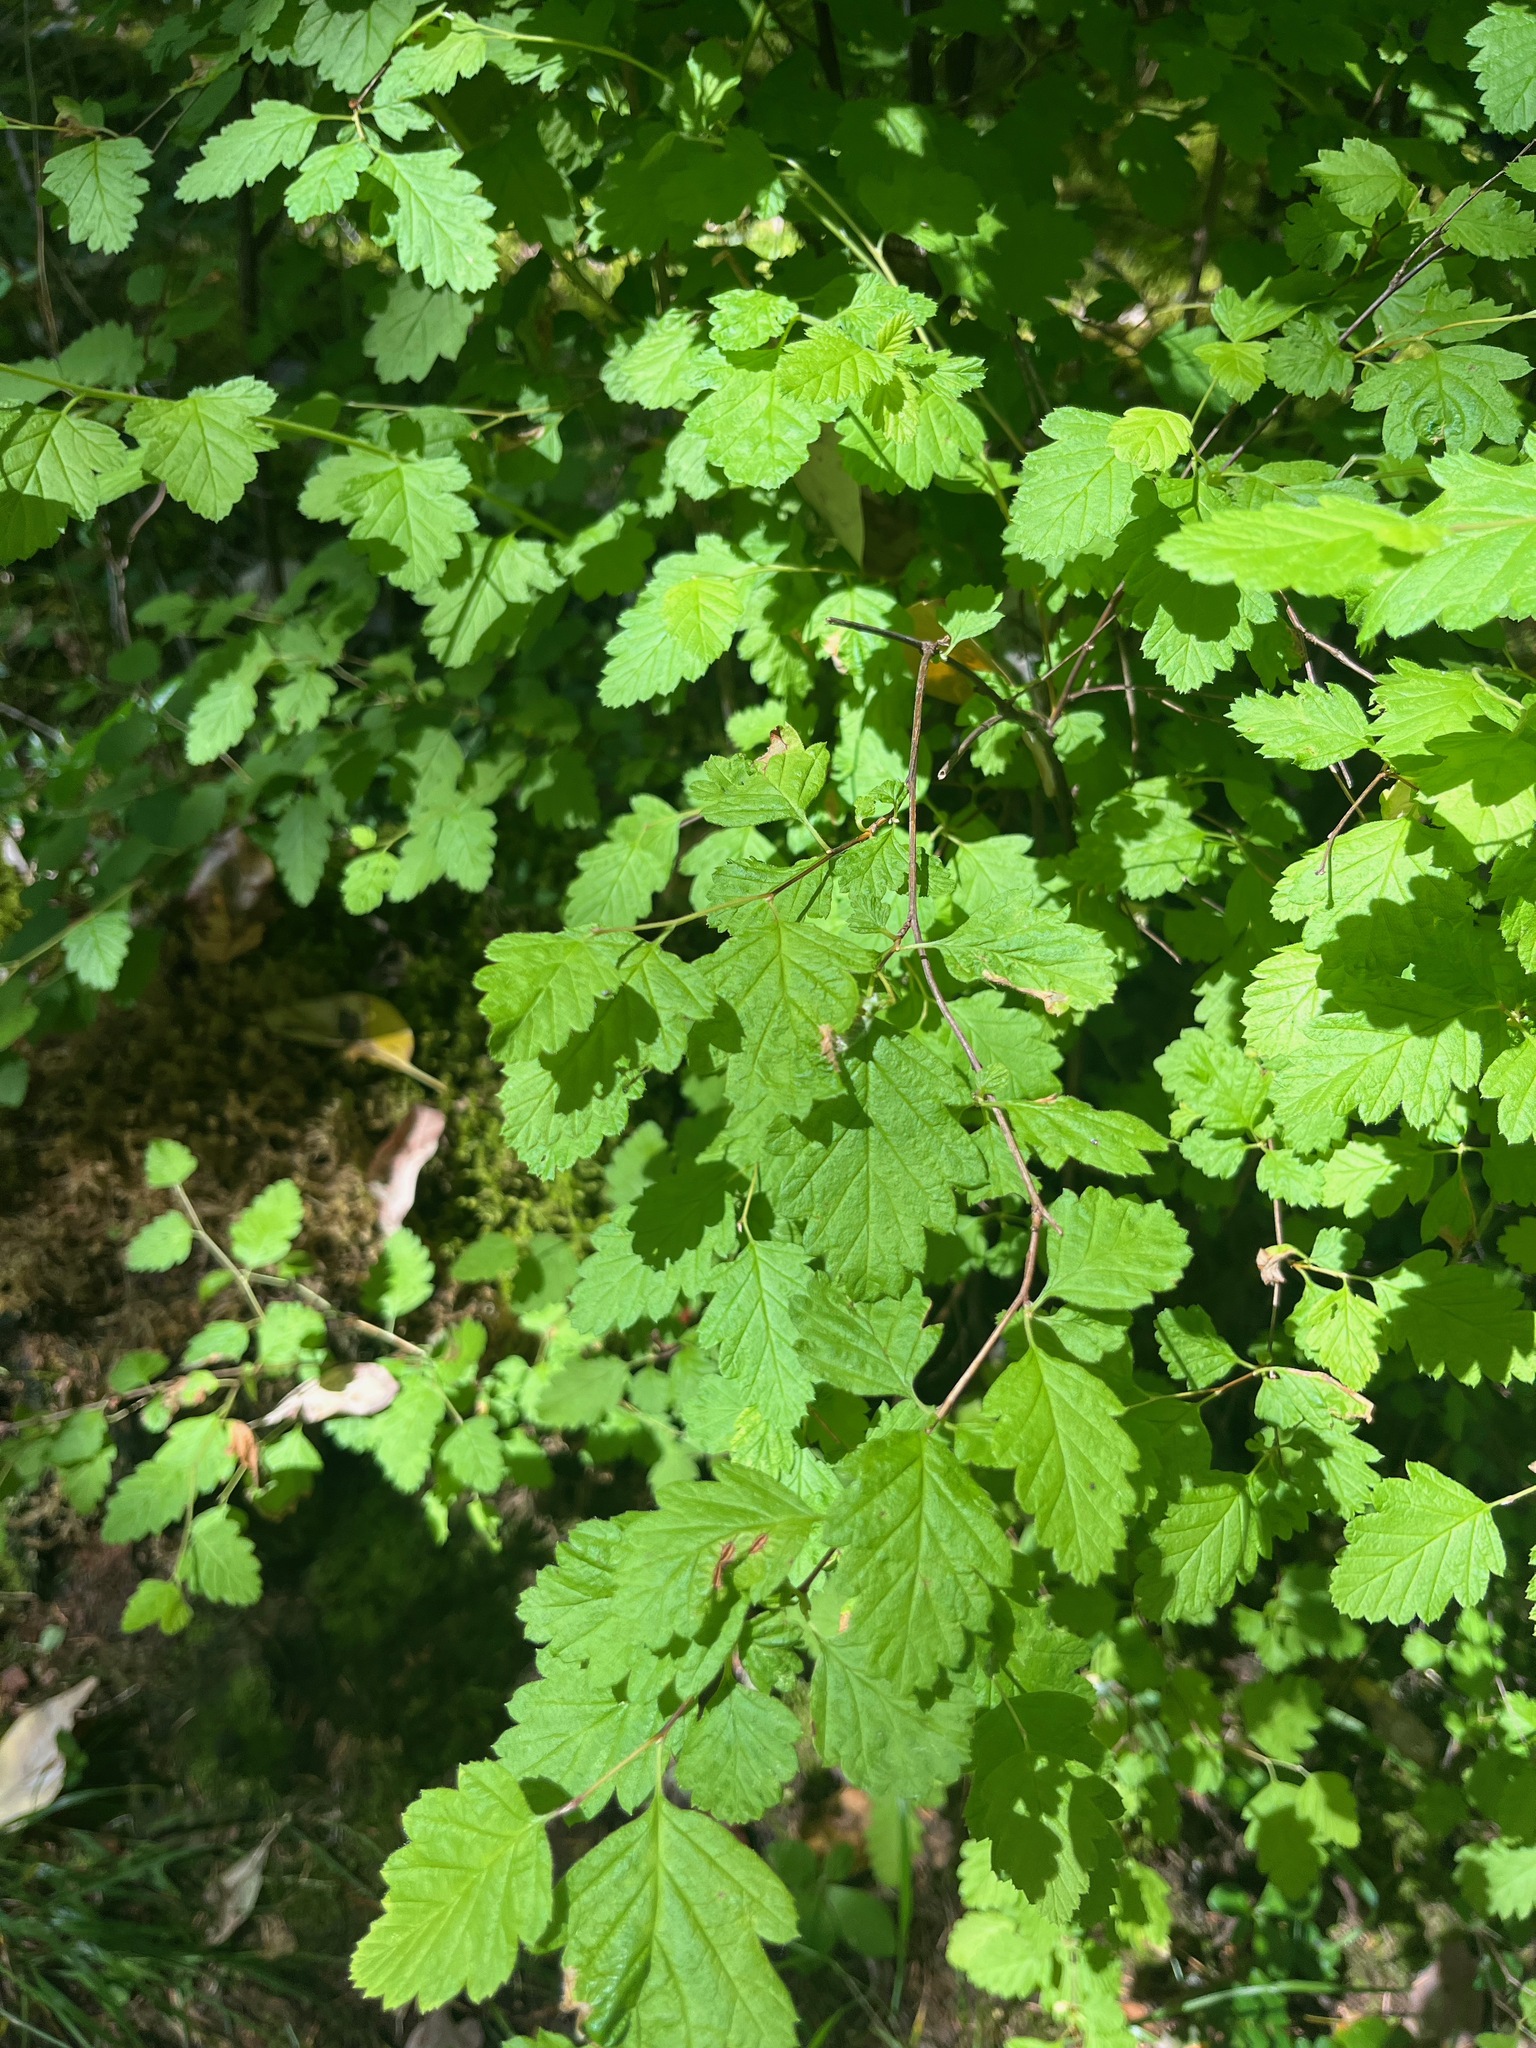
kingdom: Plantae
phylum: Tracheophyta
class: Magnoliopsida
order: Rosales
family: Rosaceae
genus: Holodiscus
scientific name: Holodiscus discolor
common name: Oceanspray
